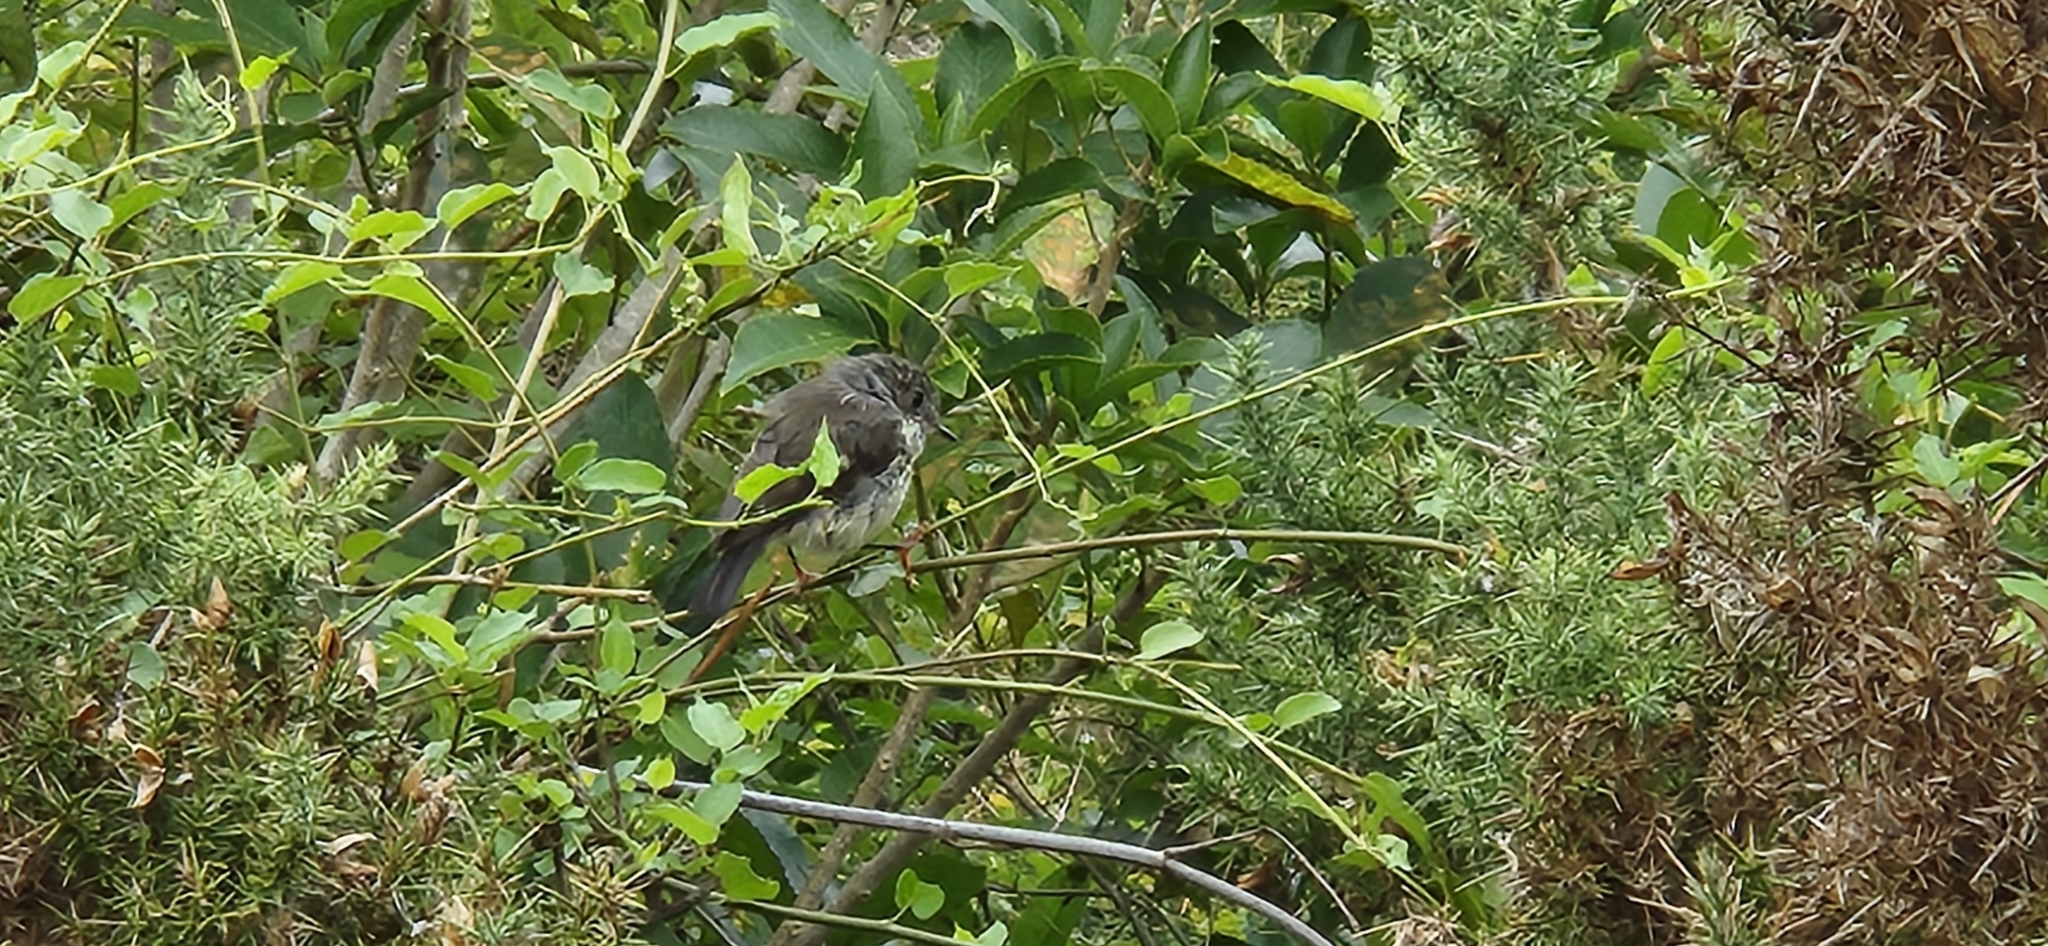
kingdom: Animalia
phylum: Chordata
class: Aves
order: Passeriformes
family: Petroicidae
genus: Petroica
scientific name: Petroica macrocephala
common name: Tomtit
